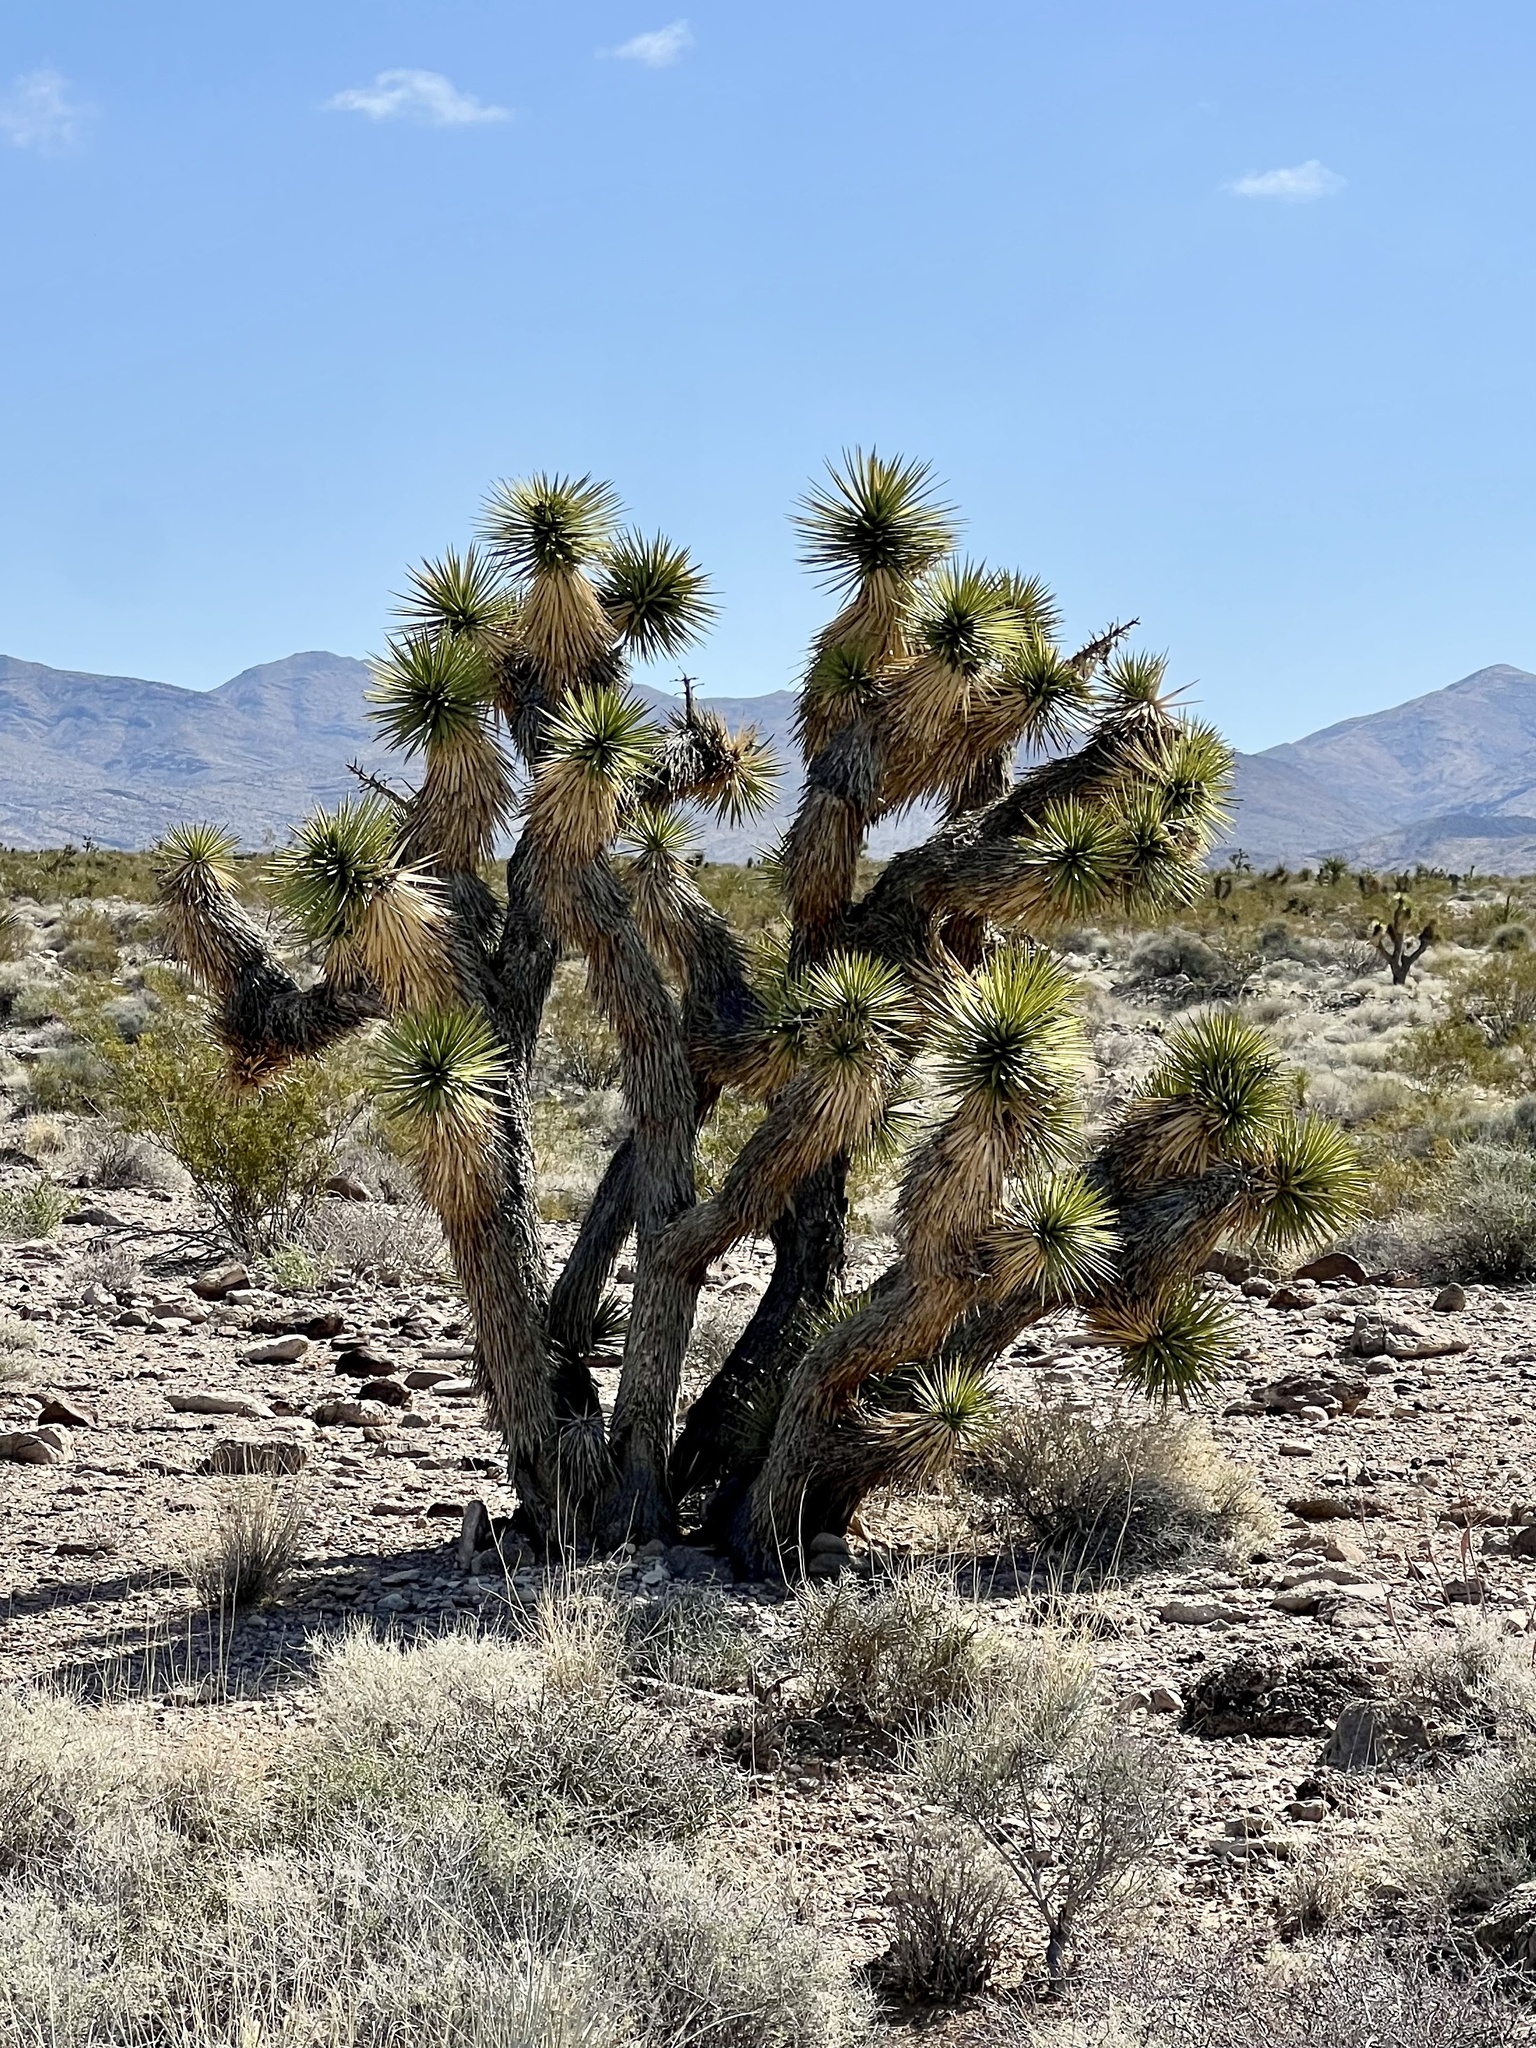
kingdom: Plantae
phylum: Tracheophyta
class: Liliopsida
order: Asparagales
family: Asparagaceae
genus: Yucca
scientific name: Yucca brevifolia
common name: Joshua tree
